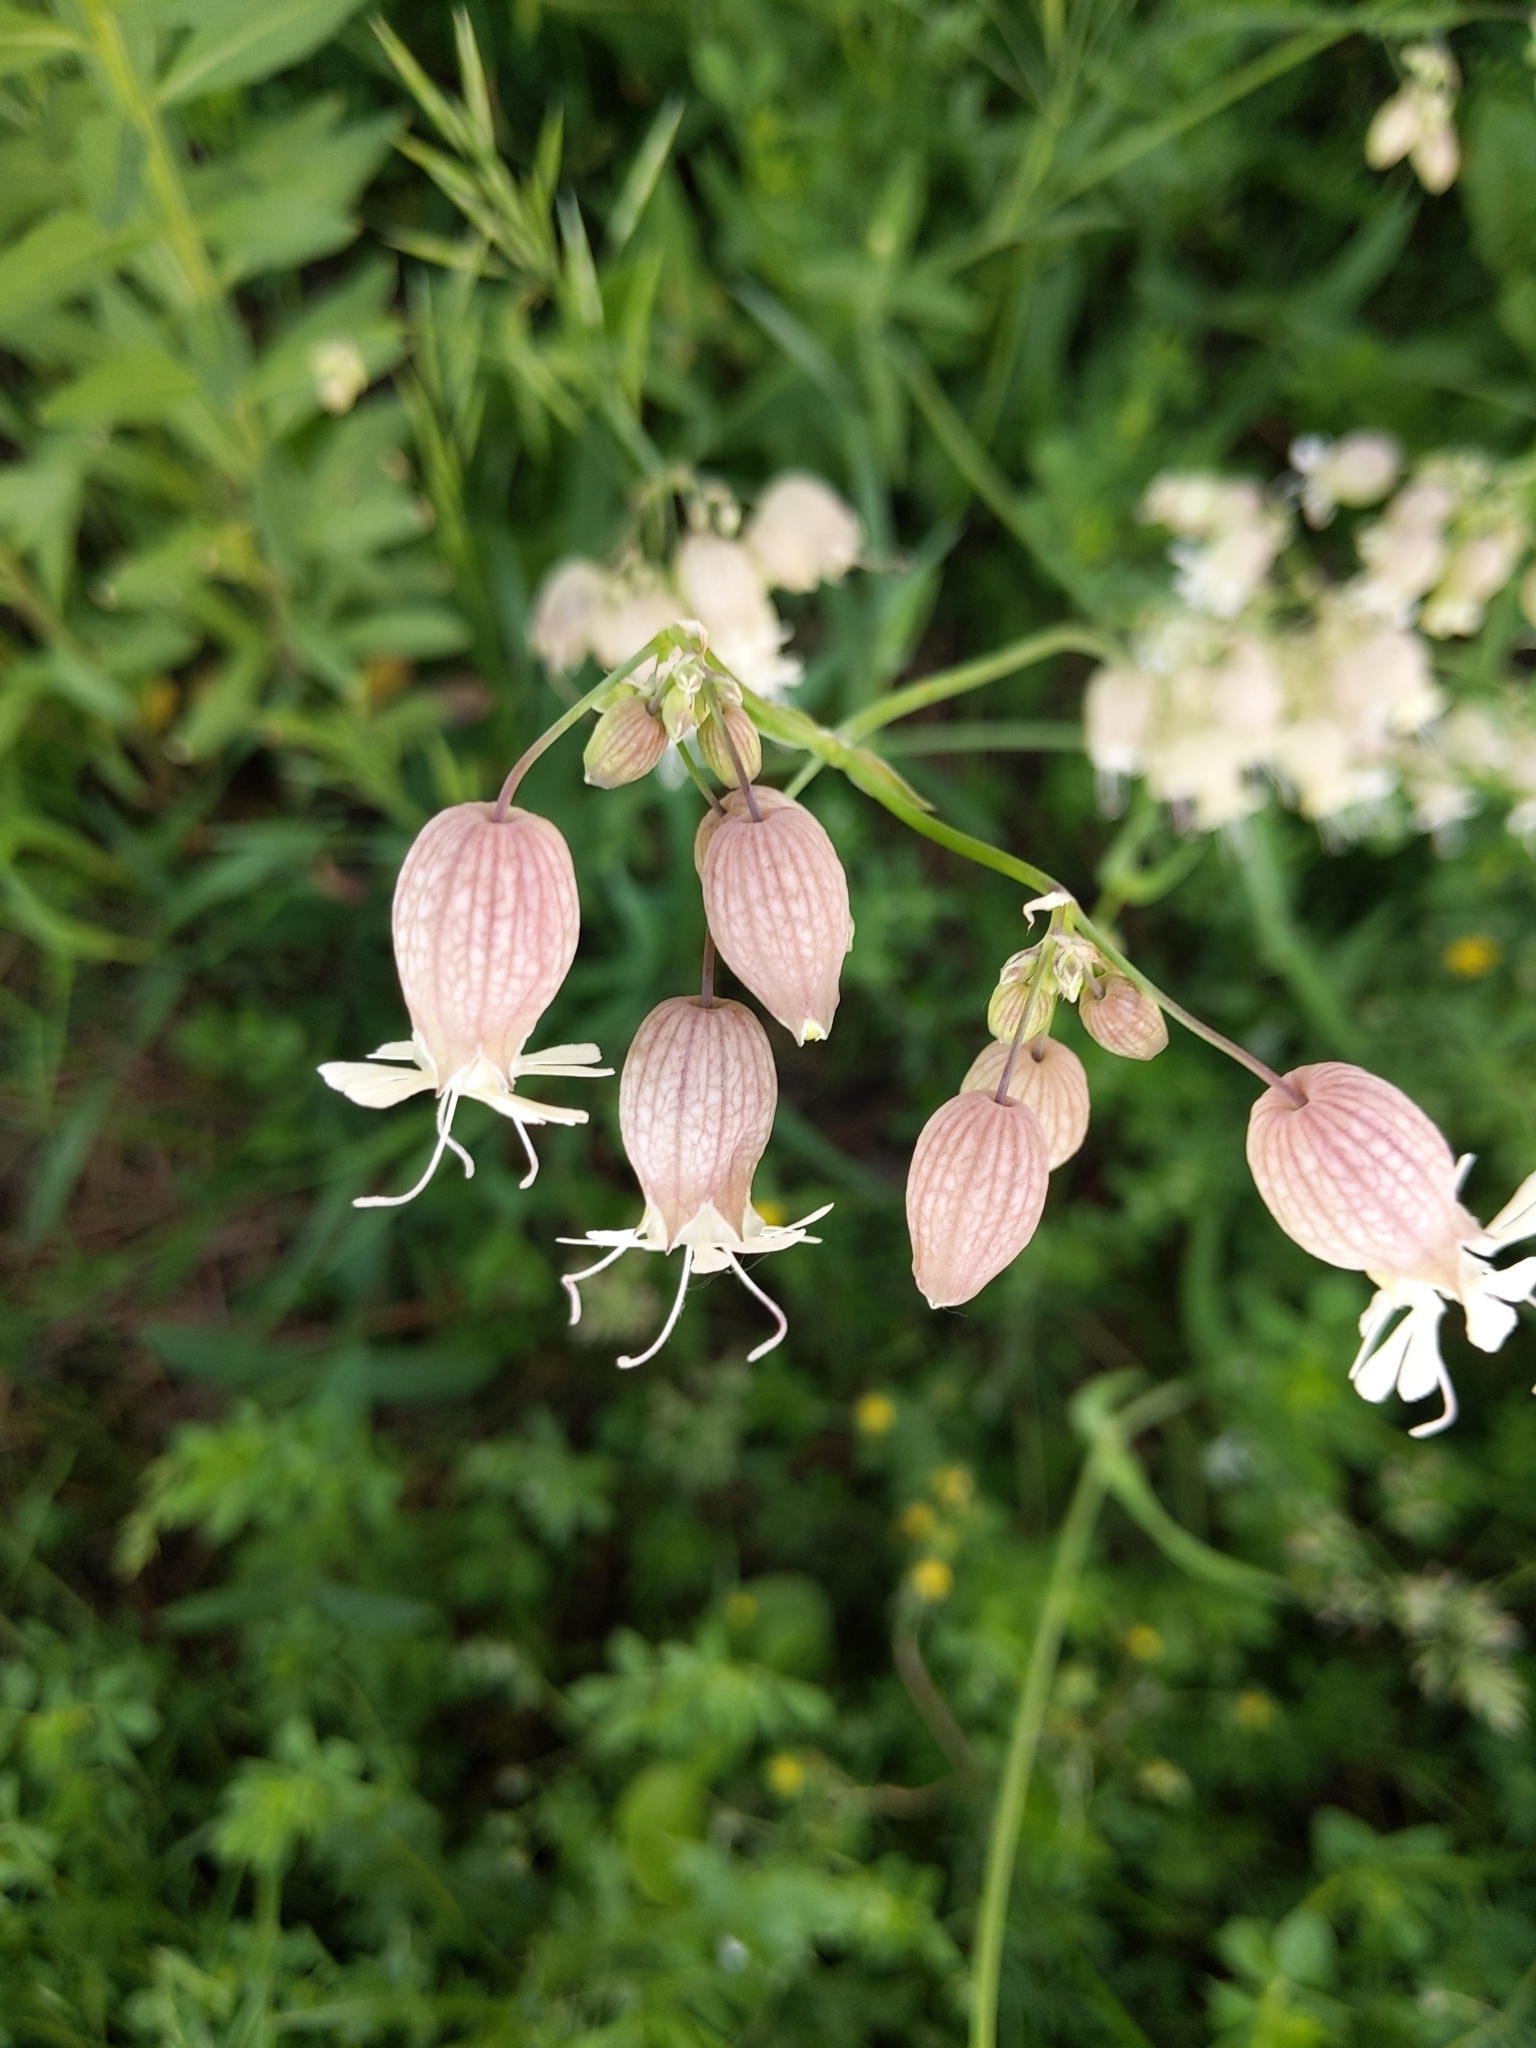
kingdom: Plantae
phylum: Tracheophyta
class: Magnoliopsida
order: Caryophyllales
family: Caryophyllaceae
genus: Silene
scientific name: Silene vulgaris
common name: Bladder campion
